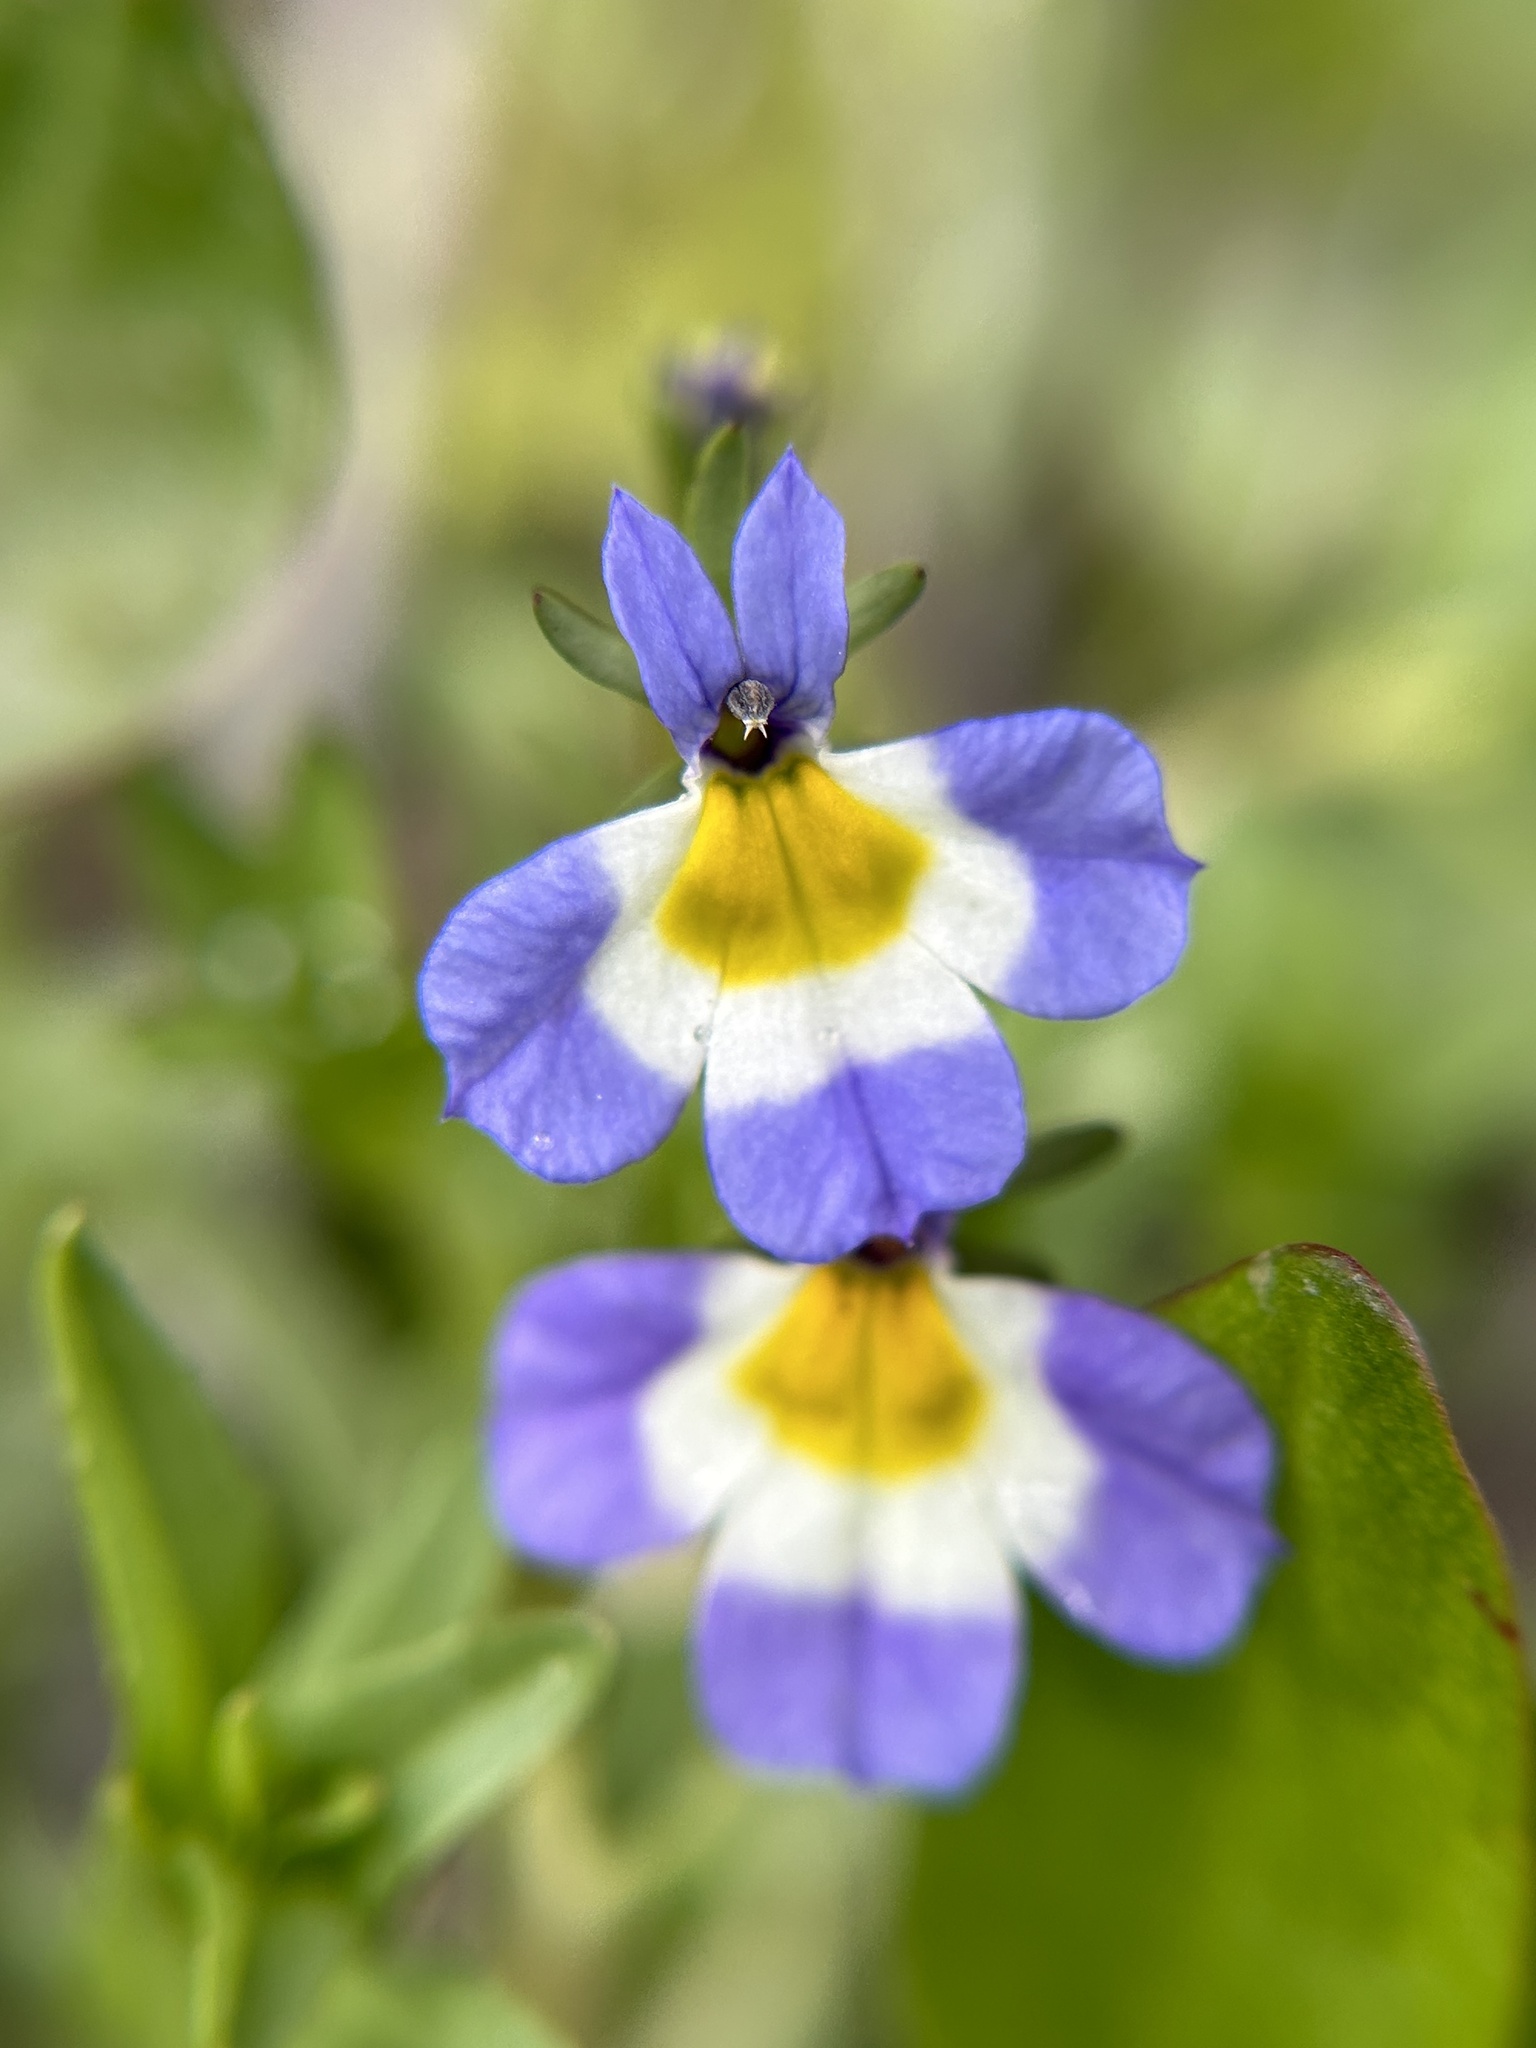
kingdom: Plantae
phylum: Tracheophyta
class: Magnoliopsida
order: Asterales
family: Campanulaceae
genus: Downingia
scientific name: Downingia cuspidata
